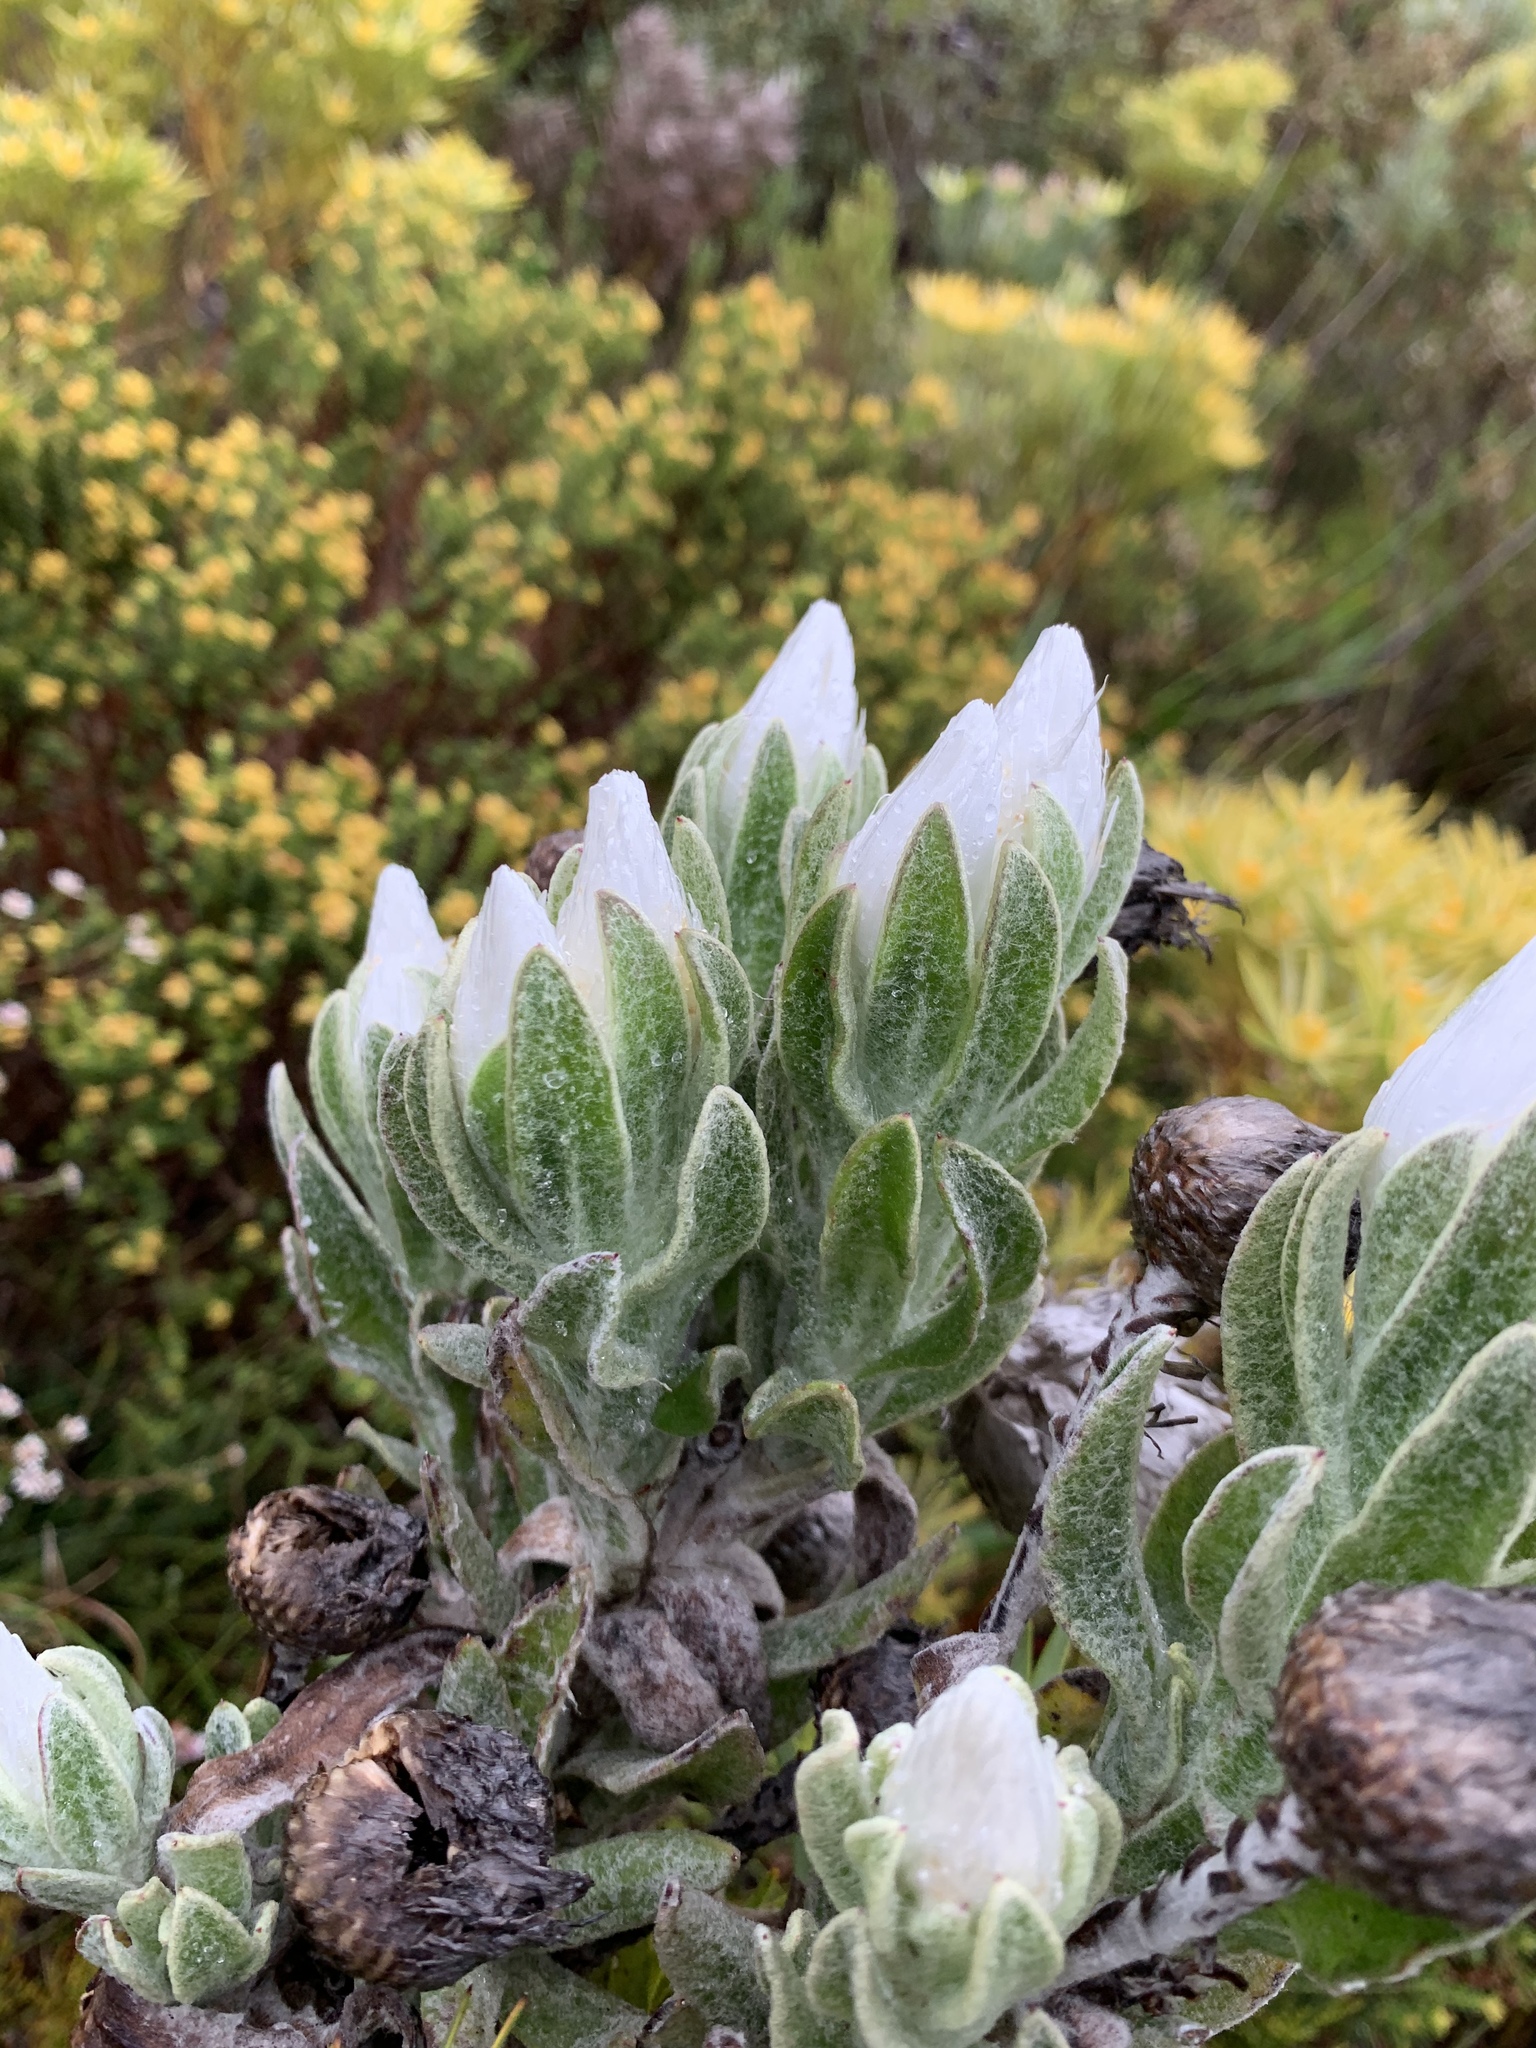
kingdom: Plantae
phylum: Tracheophyta
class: Magnoliopsida
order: Asterales
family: Asteraceae
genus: Syncarpha
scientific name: Syncarpha vestita
